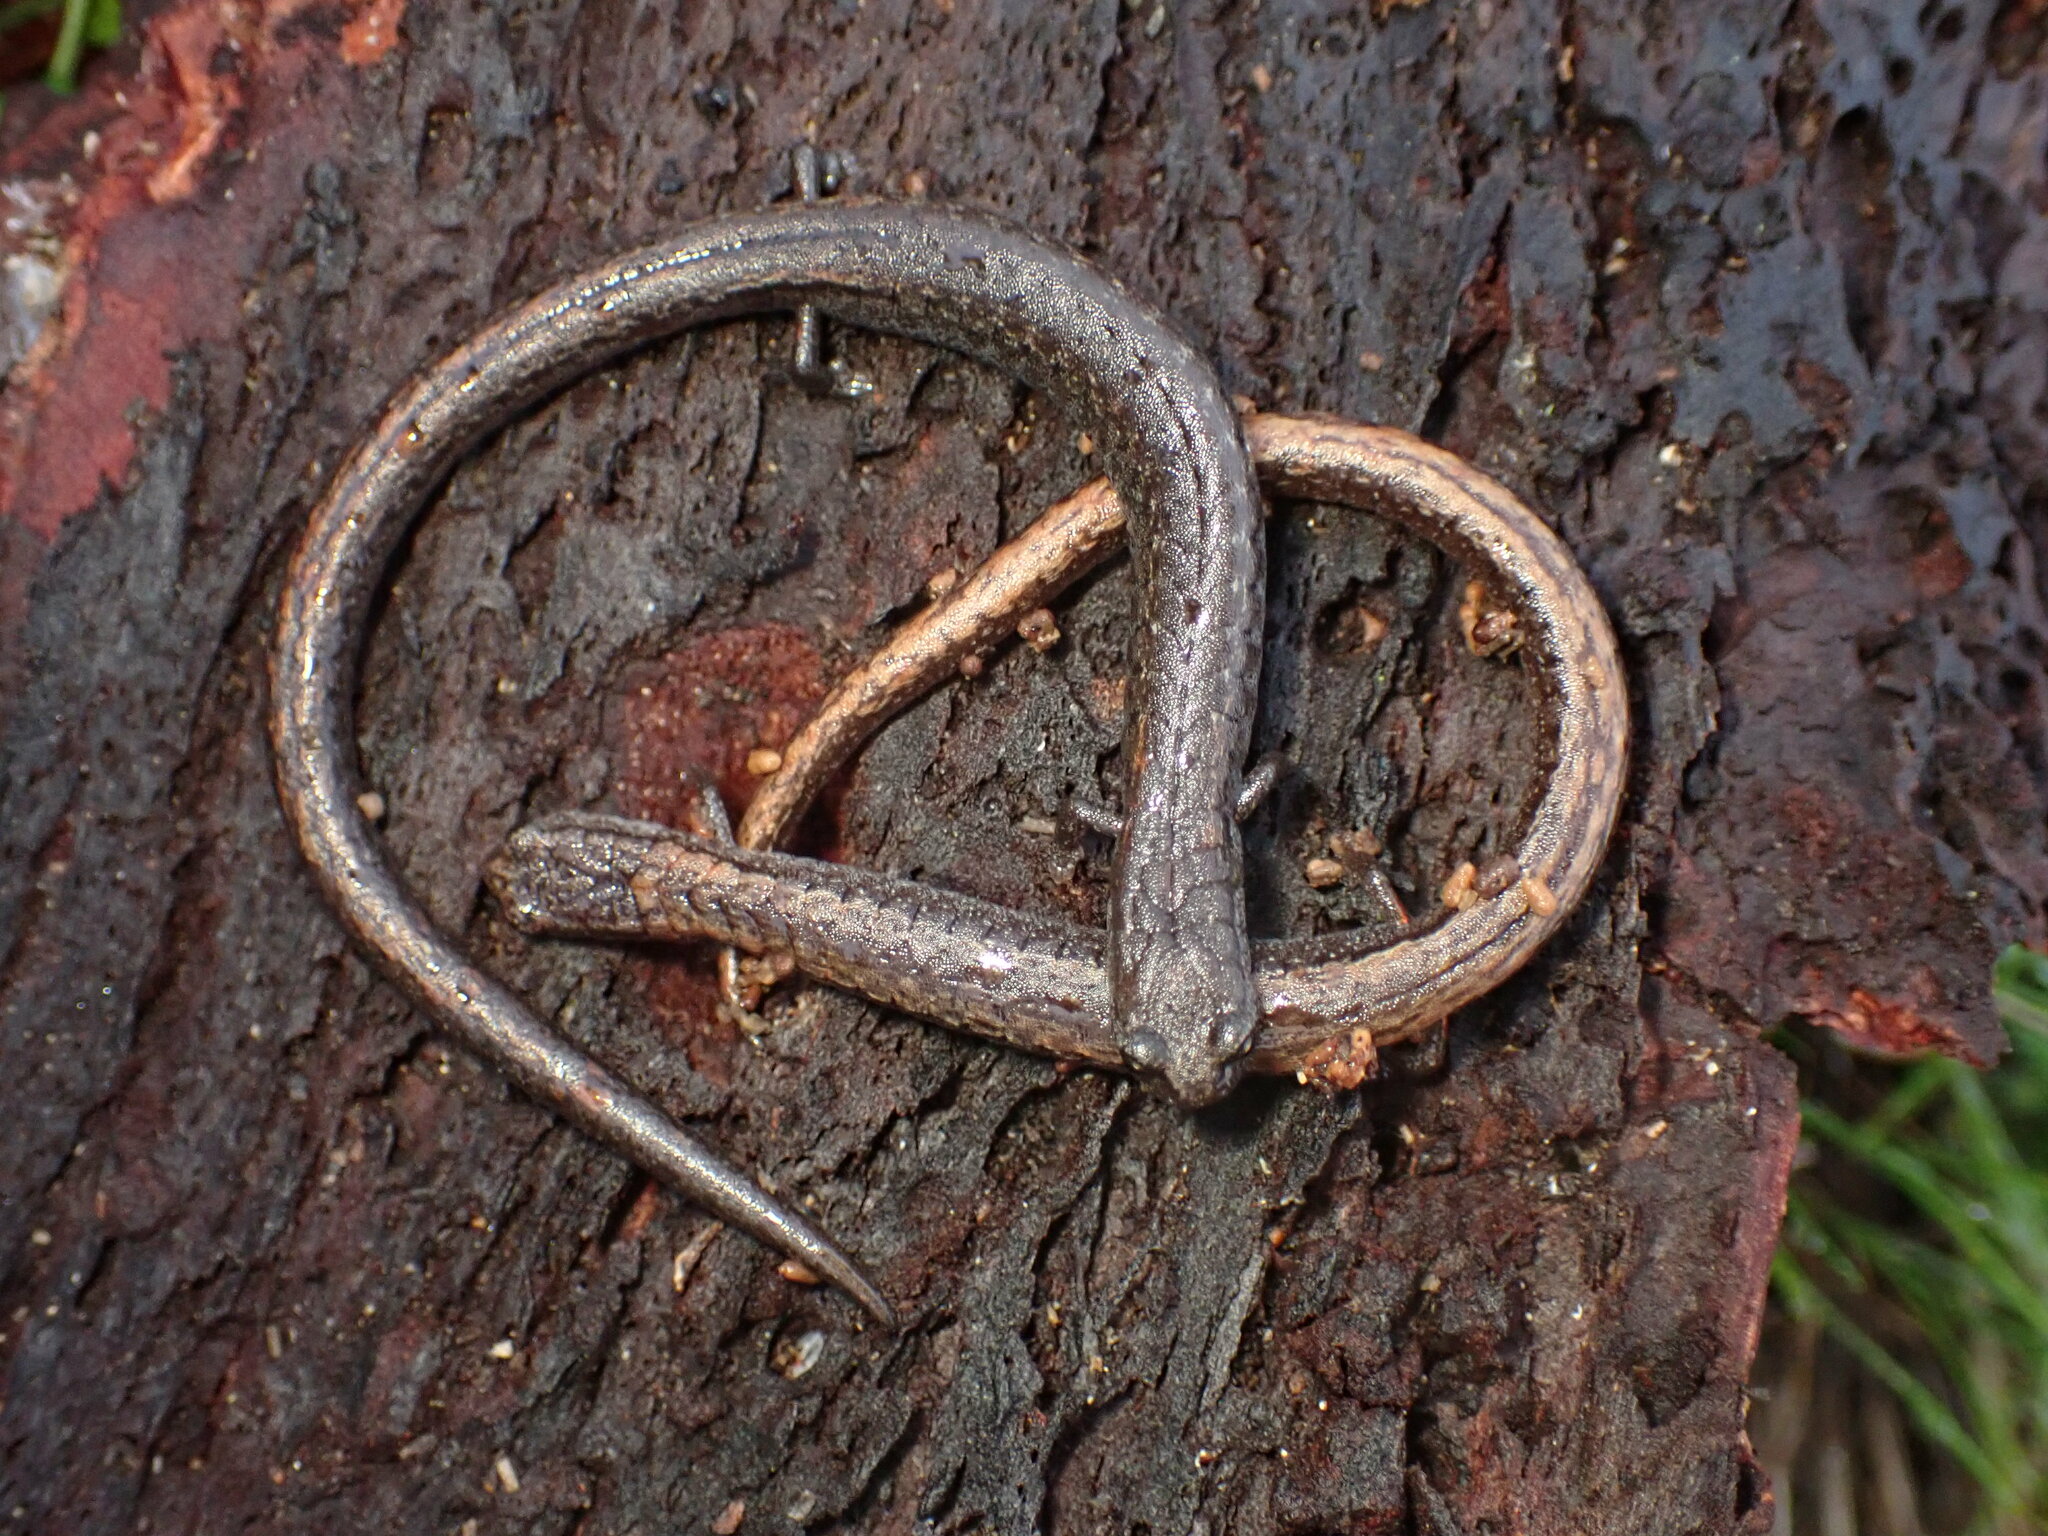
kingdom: Animalia
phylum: Chordata
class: Amphibia
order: Caudata
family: Plethodontidae
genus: Batrachoseps
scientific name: Batrachoseps attenuatus
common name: California slender salamander
